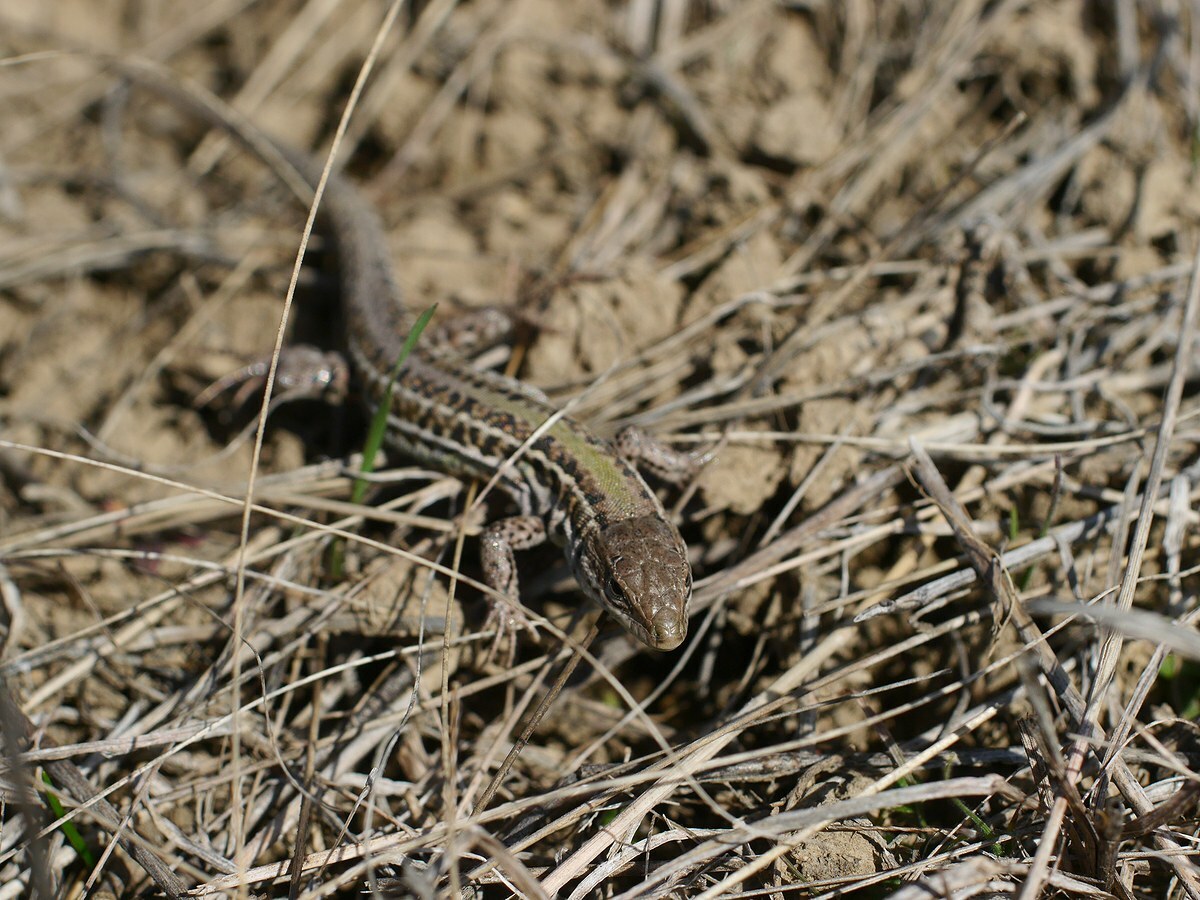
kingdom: Animalia
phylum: Chordata
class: Squamata
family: Lacertidae
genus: Podarcis
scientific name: Podarcis tauricus
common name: Balkan wall lizard
